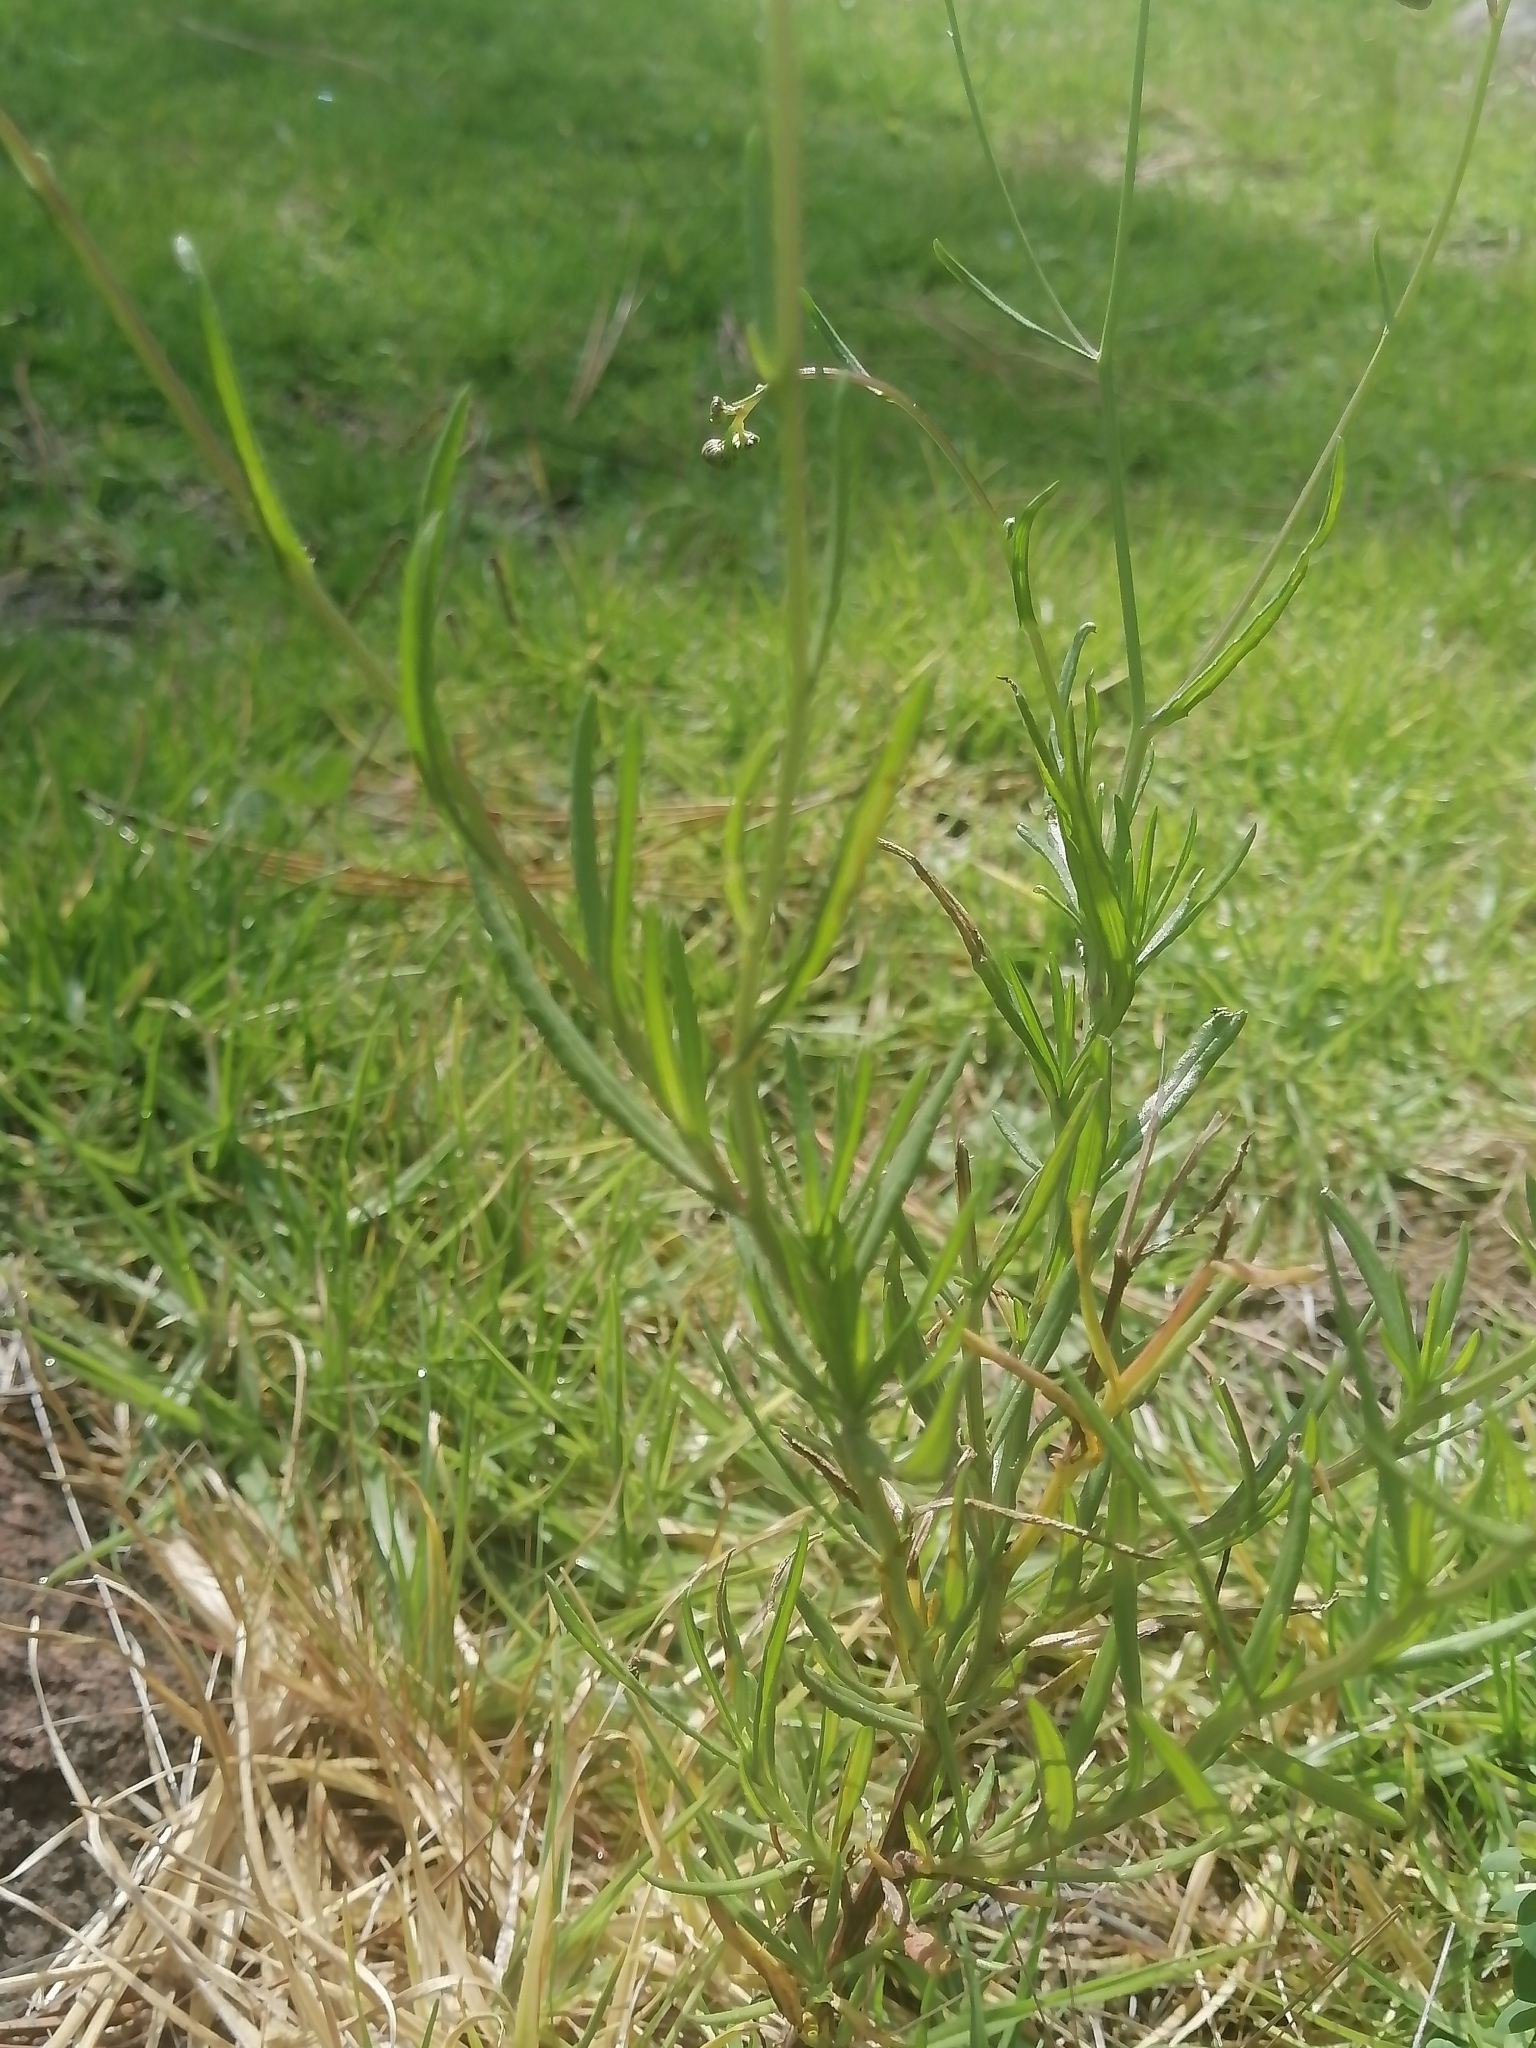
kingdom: Plantae
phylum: Tracheophyta
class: Magnoliopsida
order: Asterales
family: Asteraceae
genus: Senecio
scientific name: Senecio inaequidens
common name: Narrow-leaved ragwort
